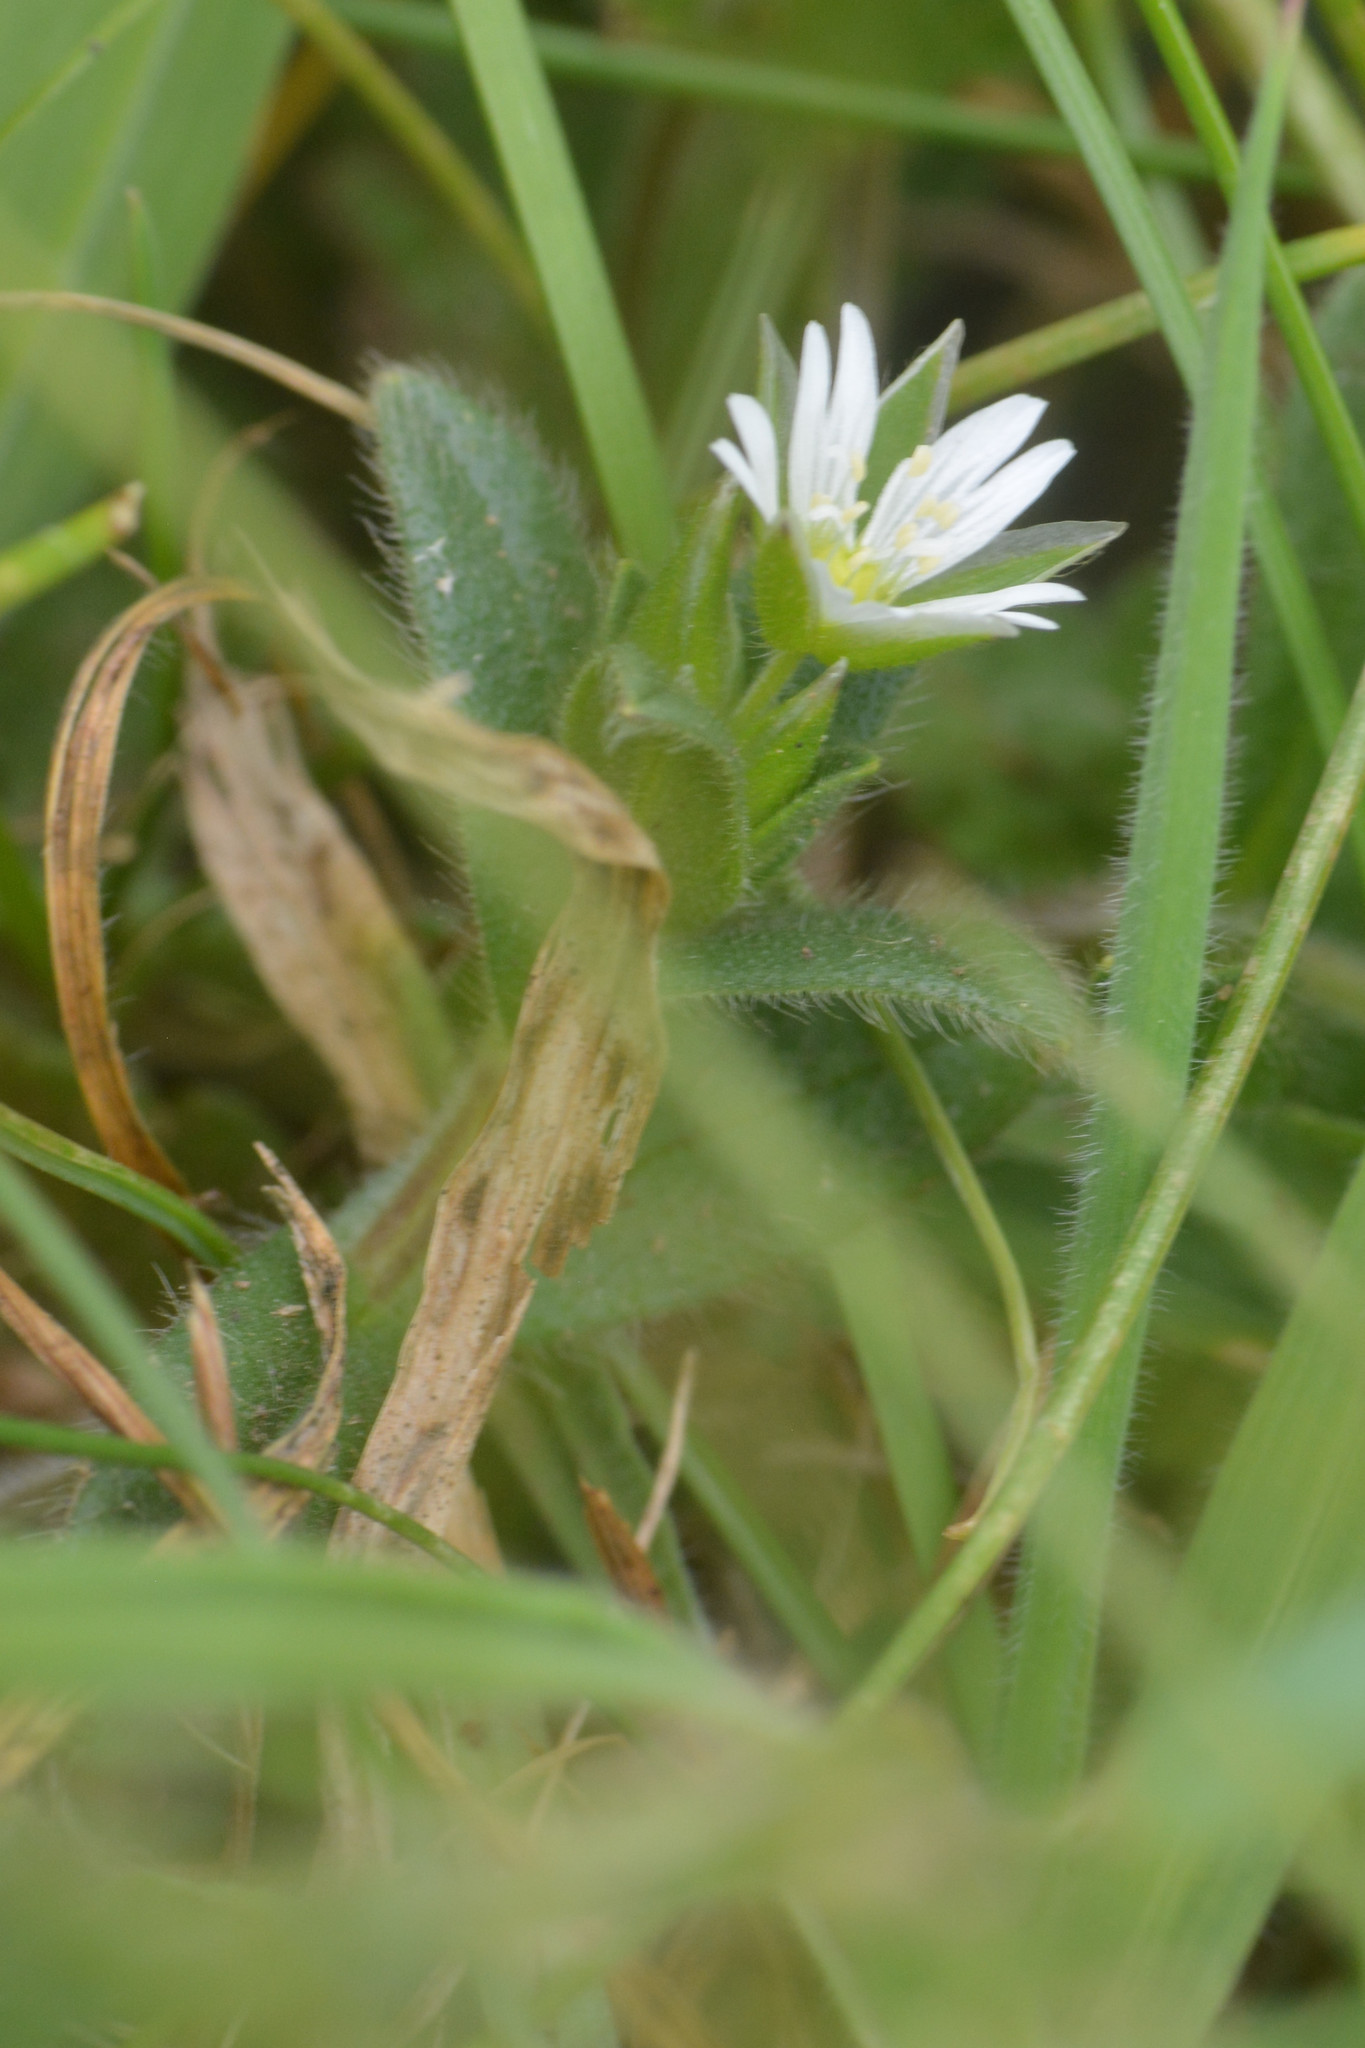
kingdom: Plantae
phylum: Tracheophyta
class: Magnoliopsida
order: Caryophyllales
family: Caryophyllaceae
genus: Cerastium
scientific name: Cerastium fontanum
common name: Common mouse-ear
